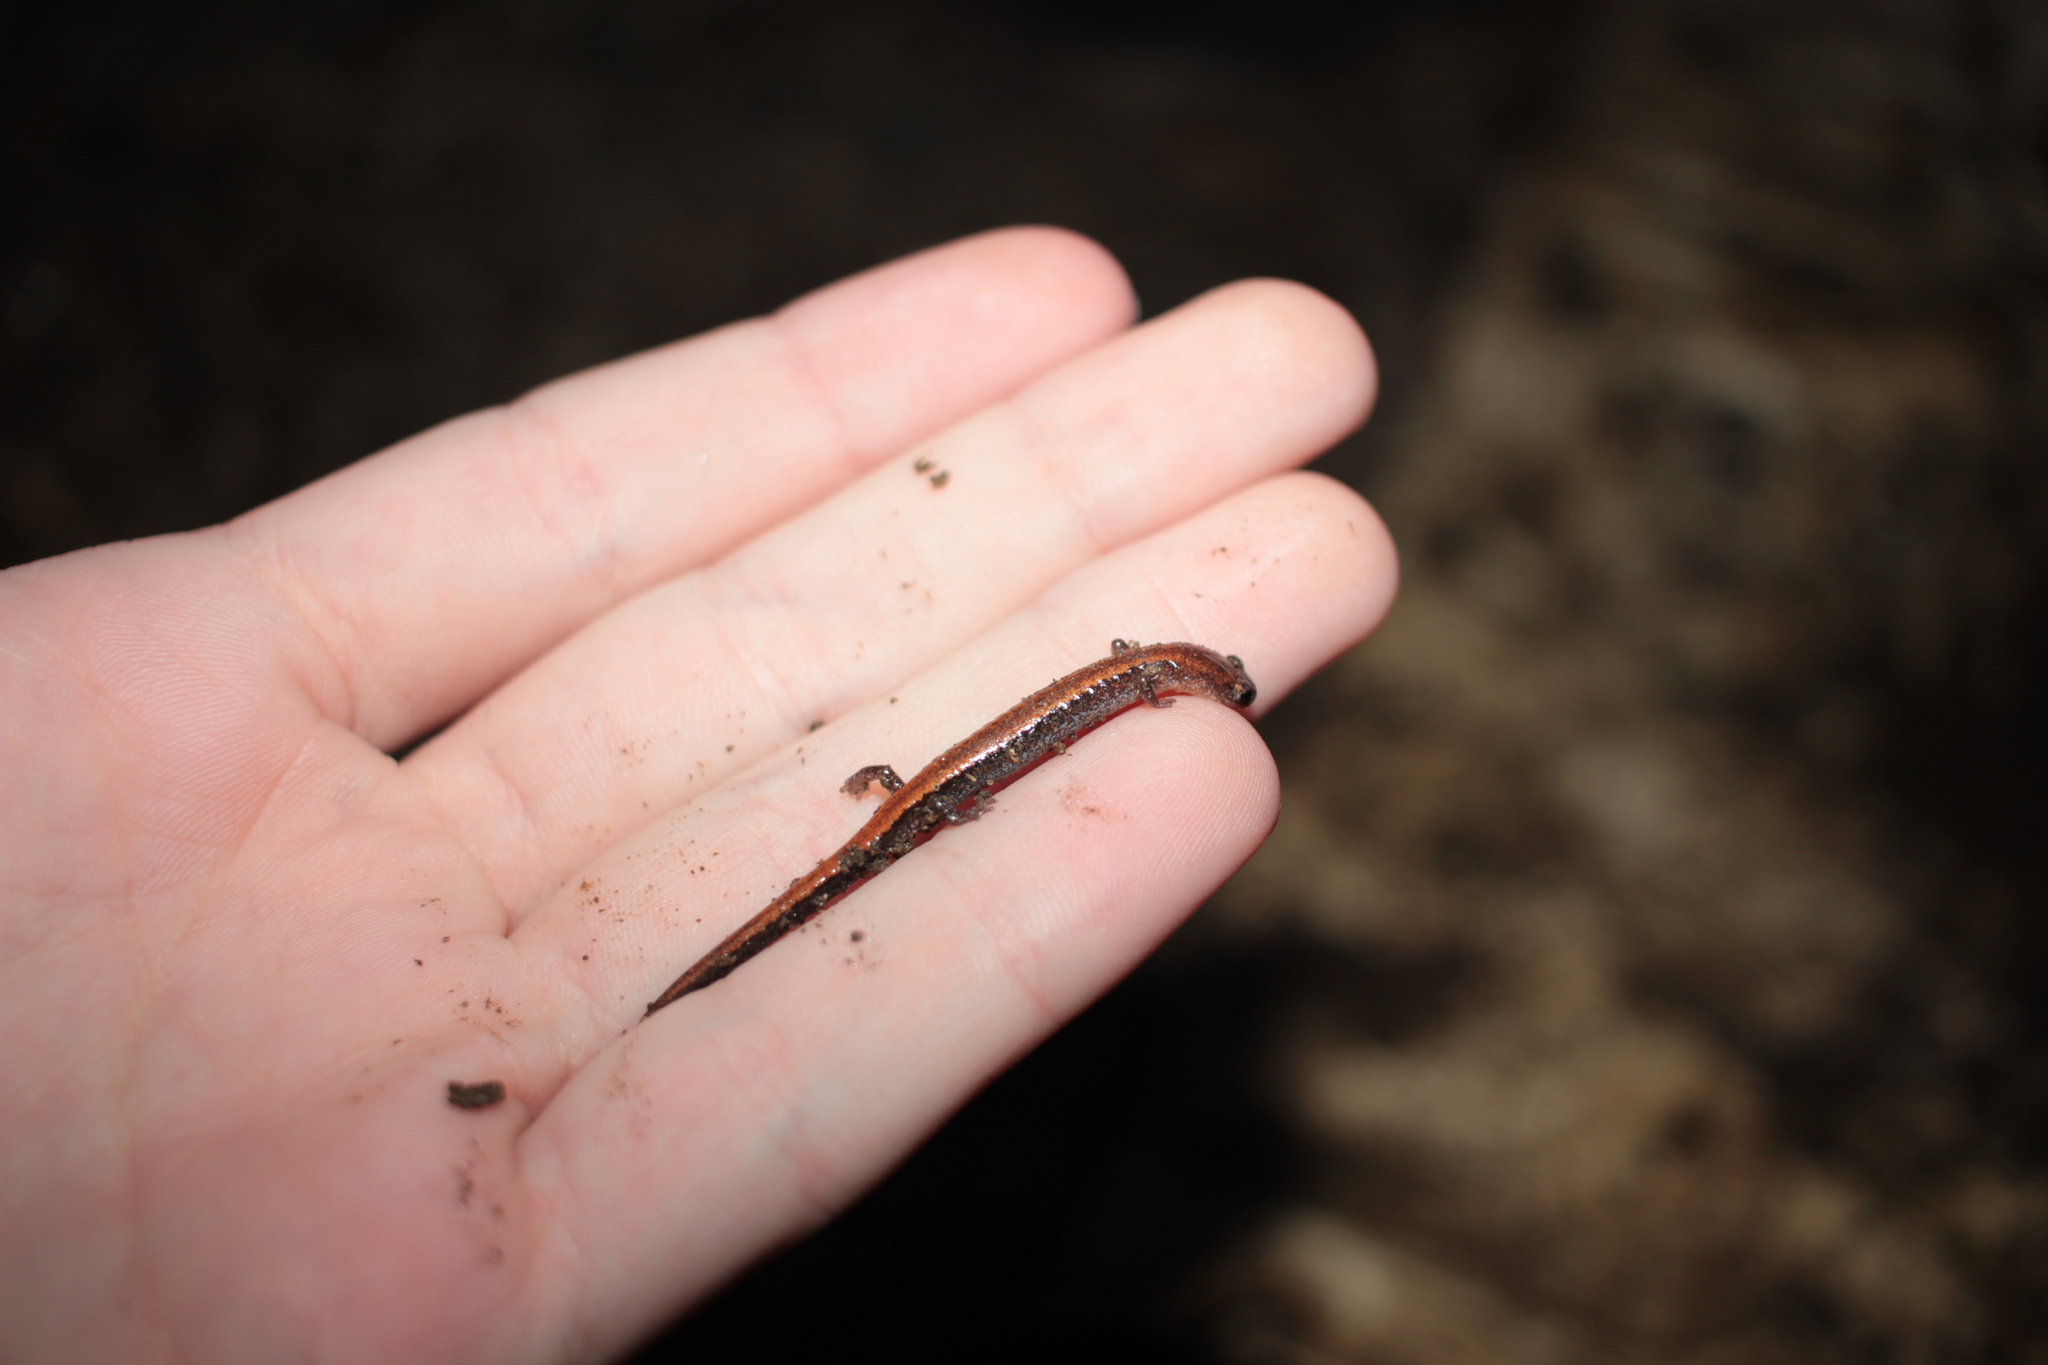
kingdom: Animalia
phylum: Chordata
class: Amphibia
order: Caudata
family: Plethodontidae
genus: Plethodon
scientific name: Plethodon cinereus
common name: Redback salamander
